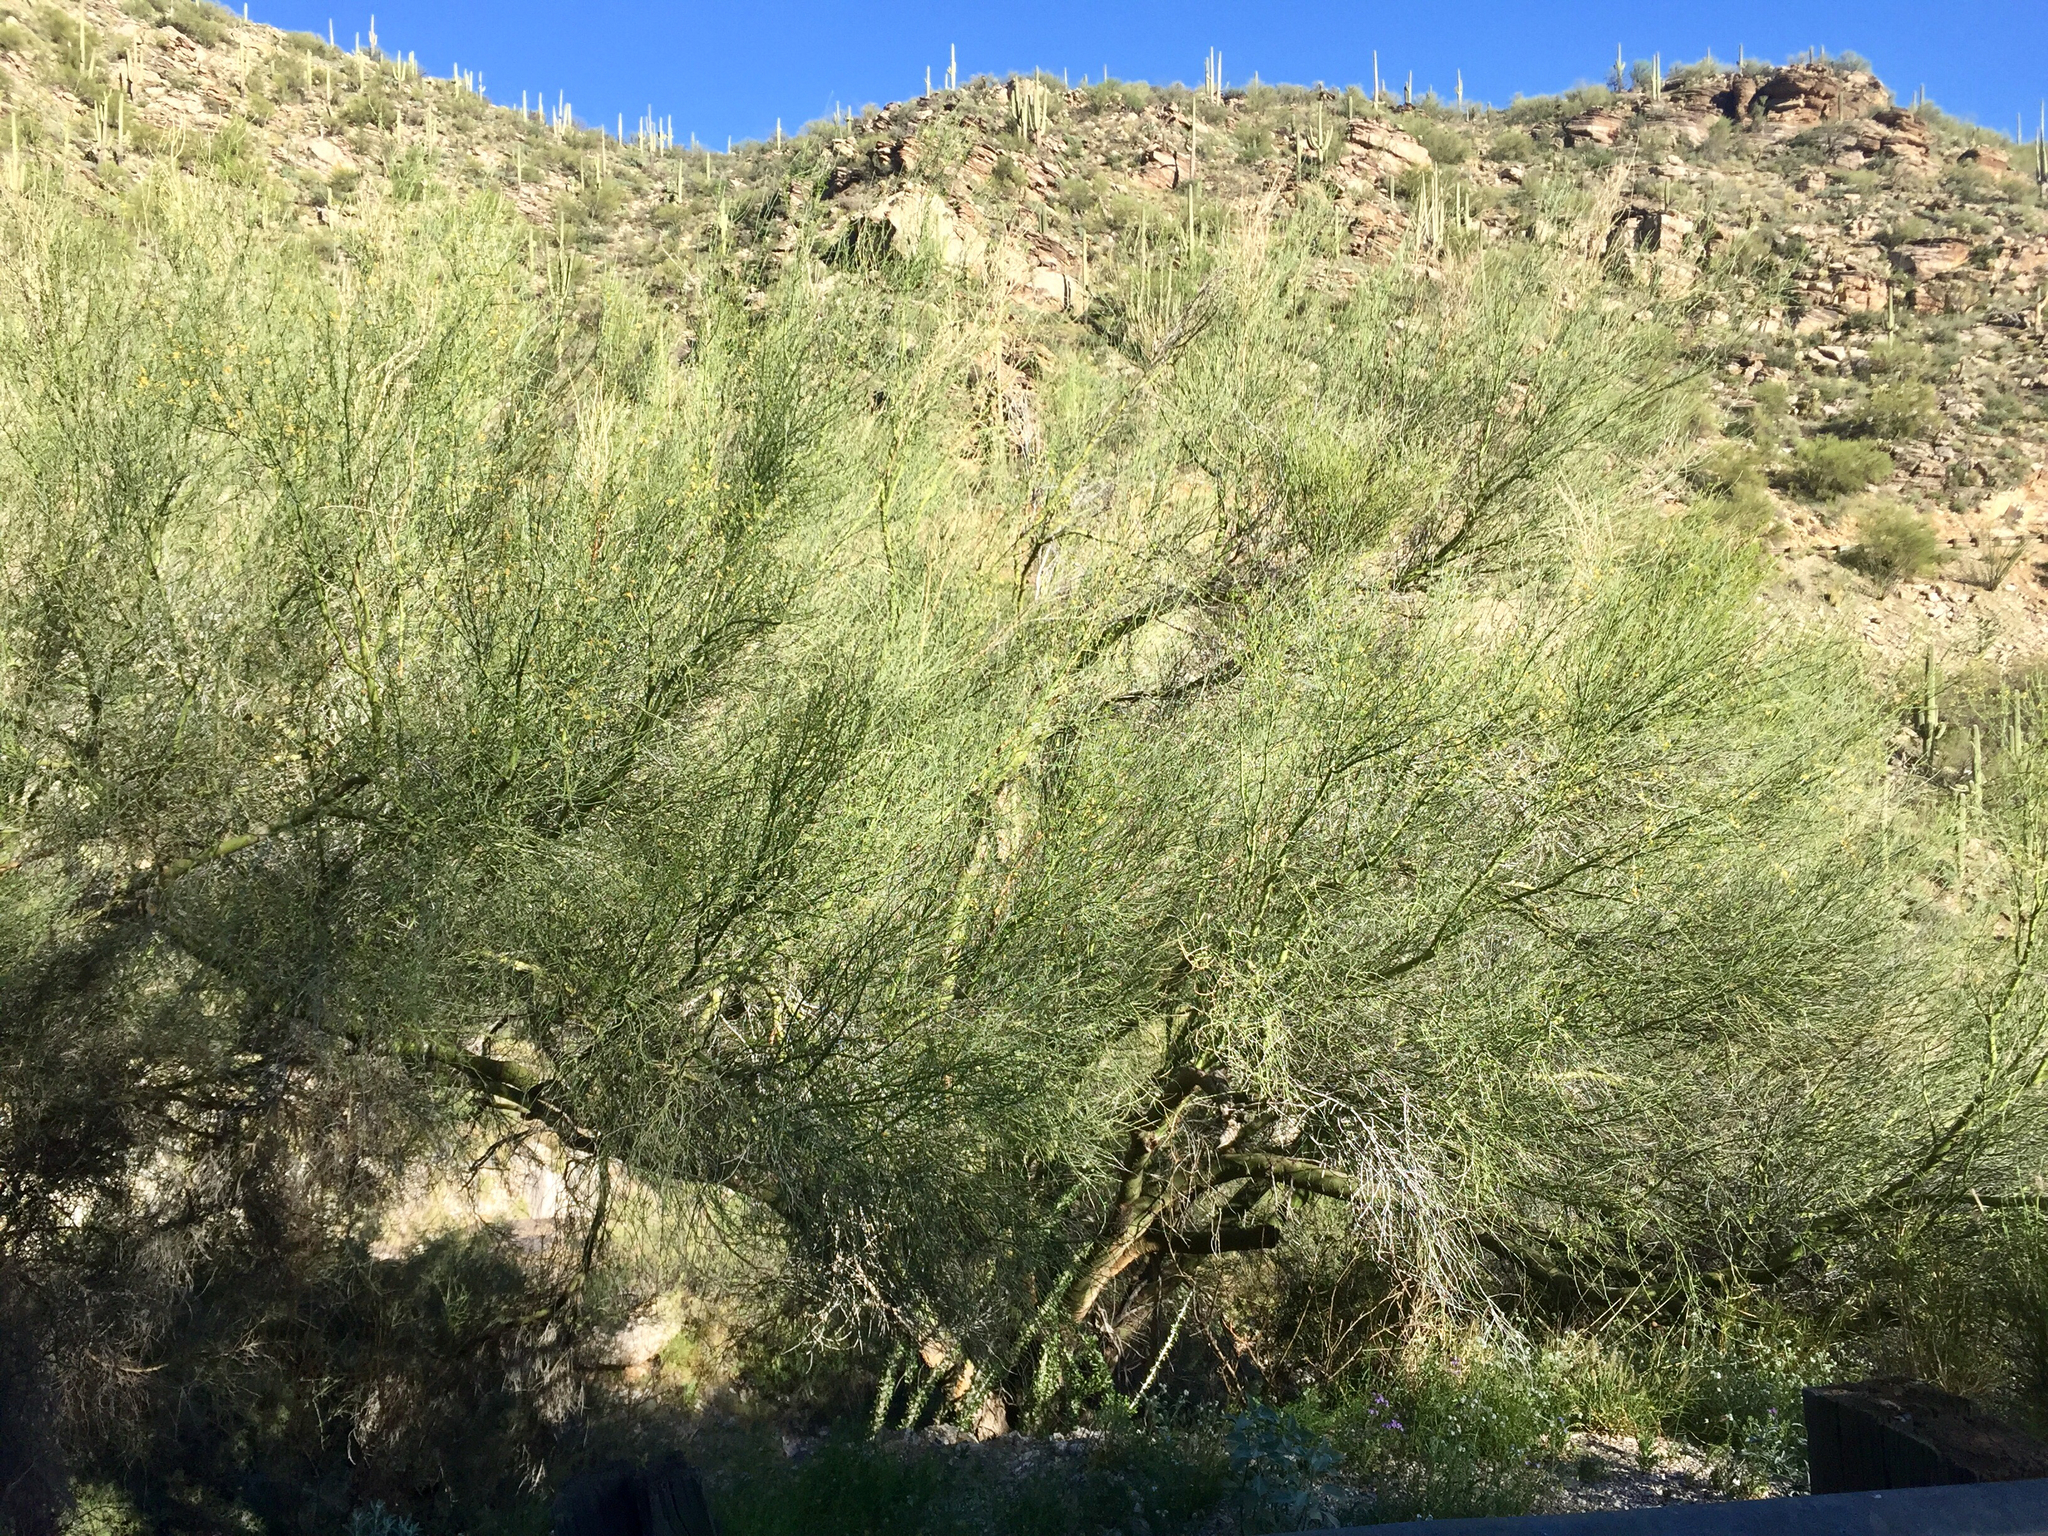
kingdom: Plantae
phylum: Tracheophyta
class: Magnoliopsida
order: Fabales
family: Fabaceae
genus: Parkinsonia
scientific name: Parkinsonia microphylla
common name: Yellow paloverde
